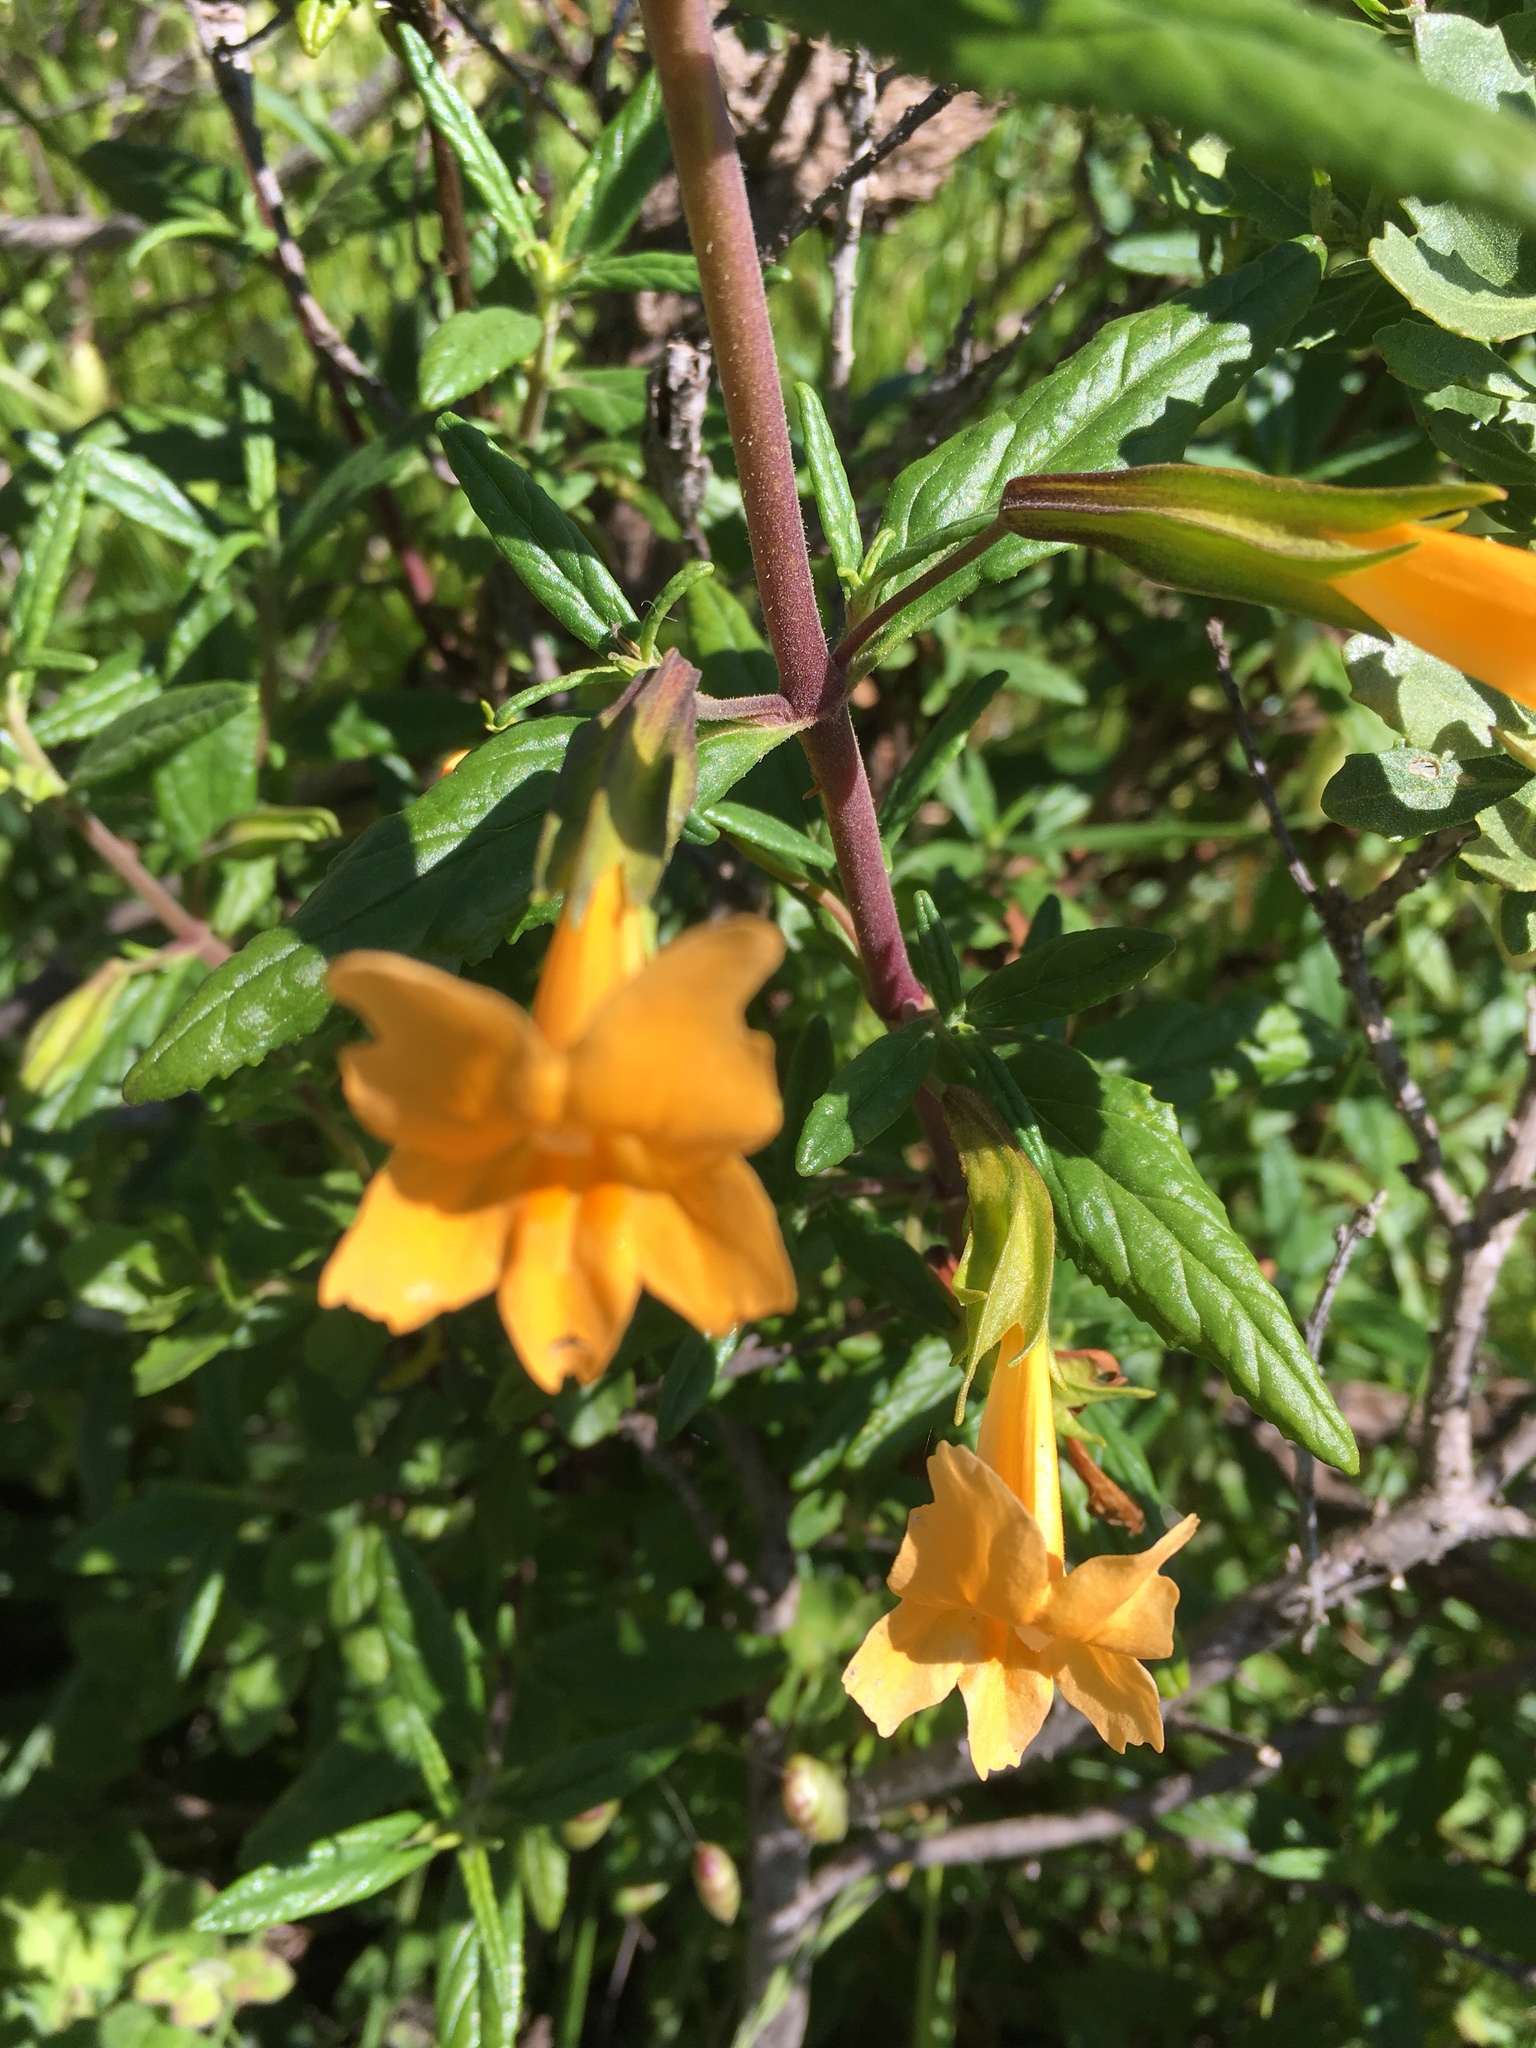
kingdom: Plantae
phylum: Tracheophyta
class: Magnoliopsida
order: Lamiales
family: Phrymaceae
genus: Diplacus
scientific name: Diplacus aurantiacus
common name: Bush monkey-flower
